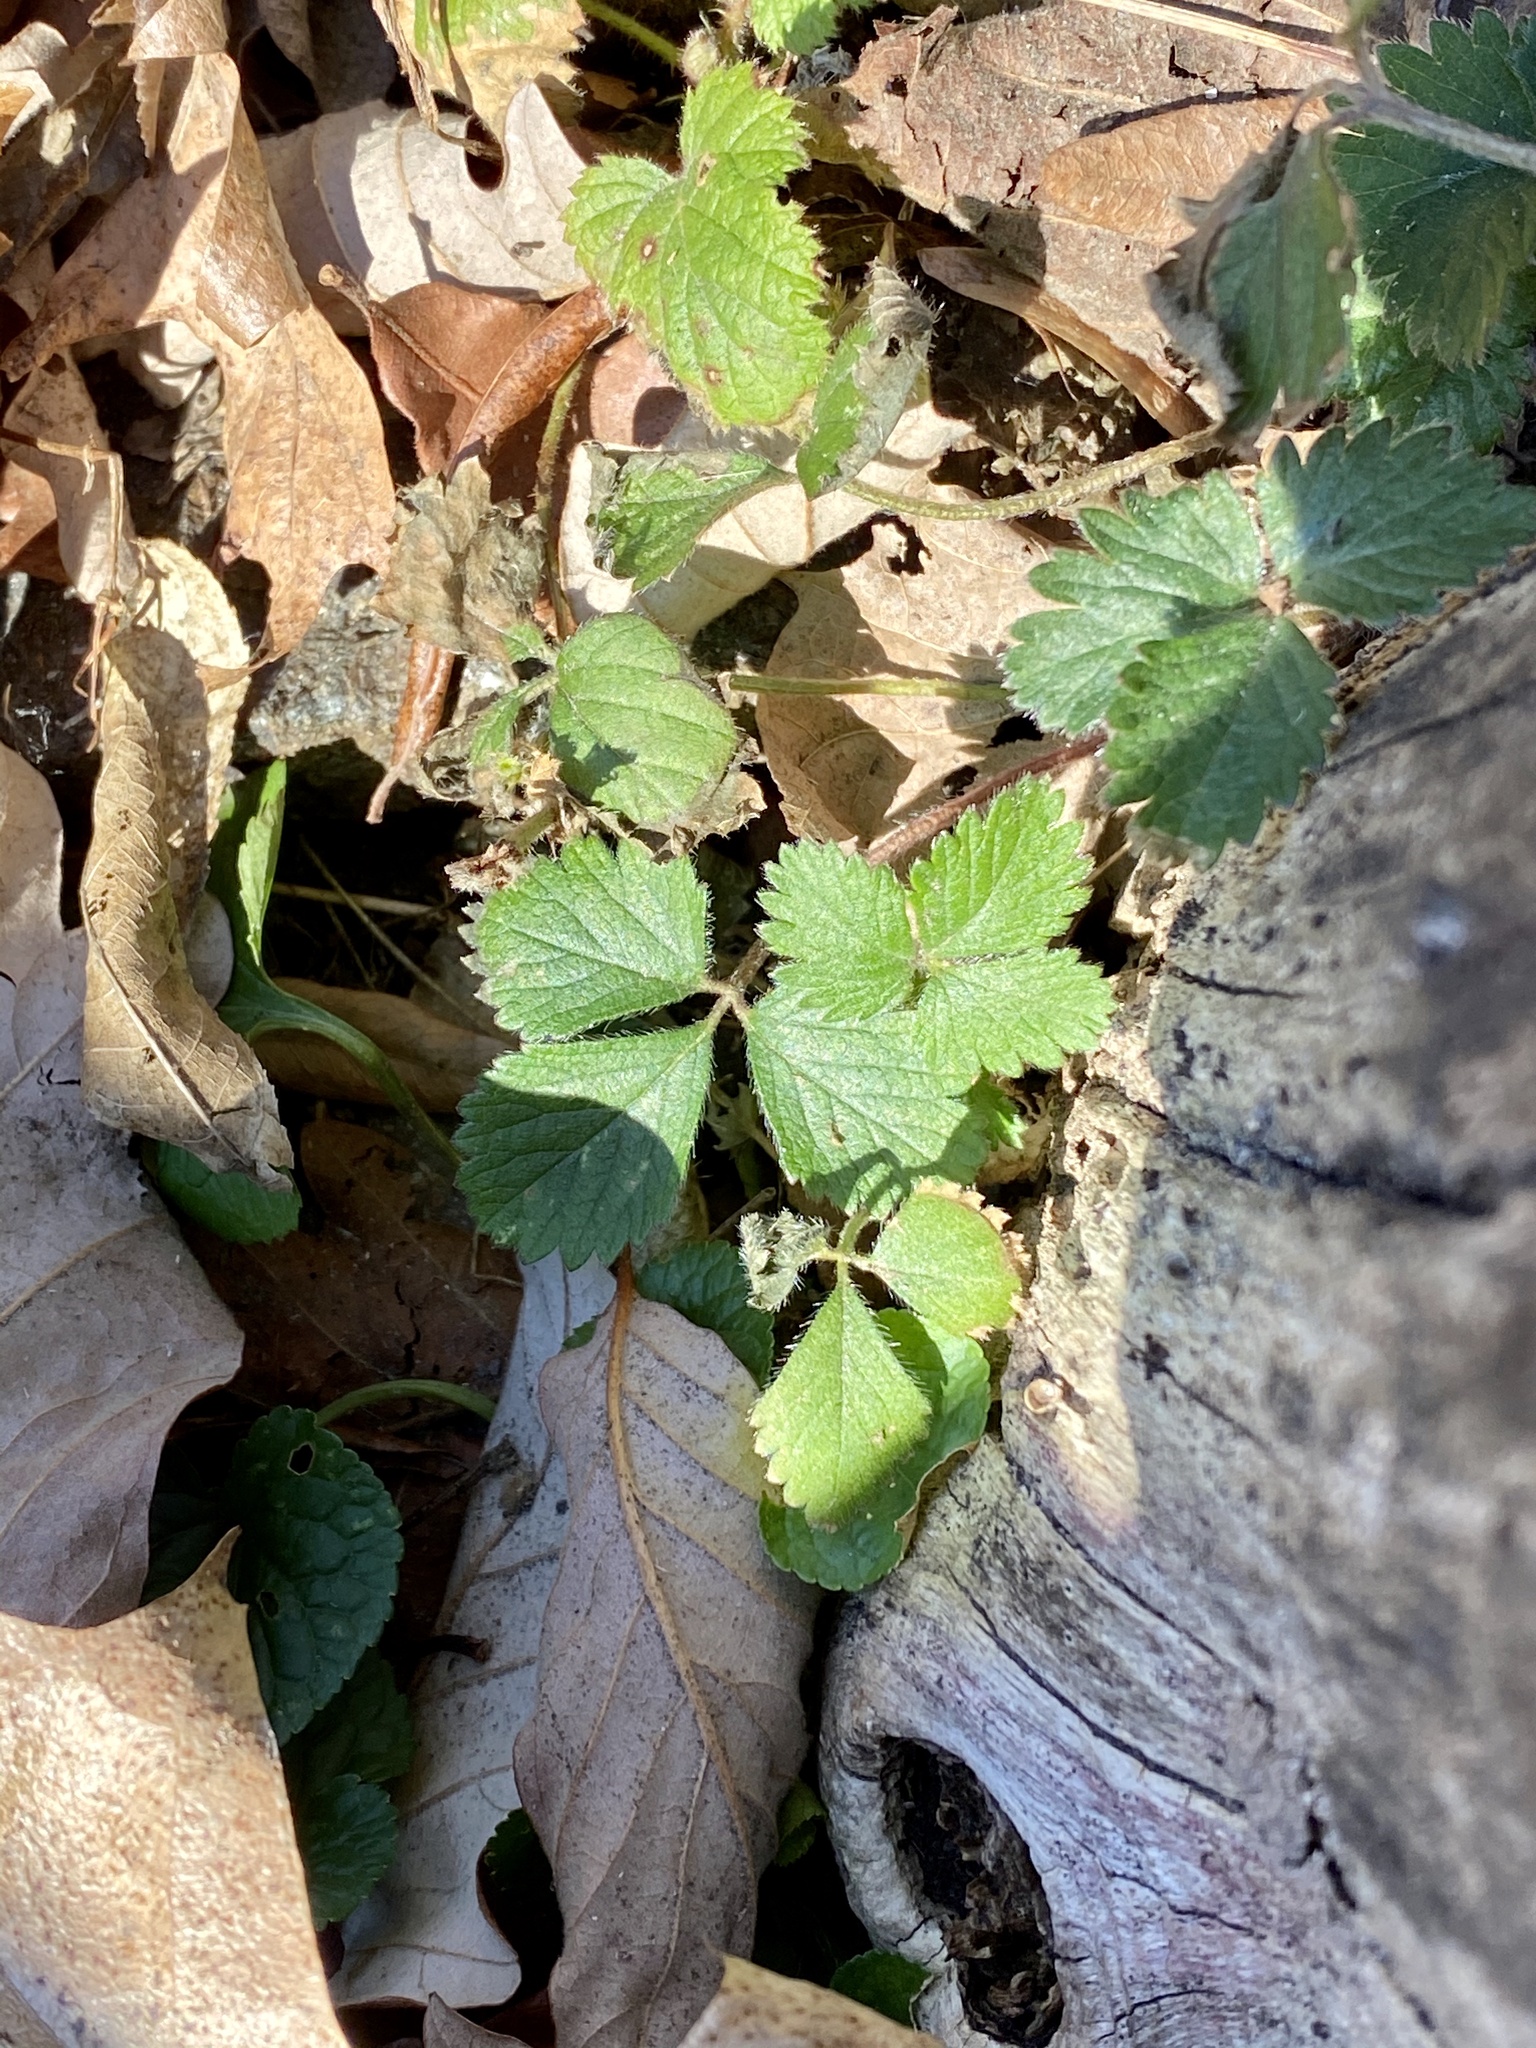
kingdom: Plantae
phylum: Tracheophyta
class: Magnoliopsida
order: Rosales
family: Rosaceae
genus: Potentilla
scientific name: Potentilla indica
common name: Yellow-flowered strawberry
